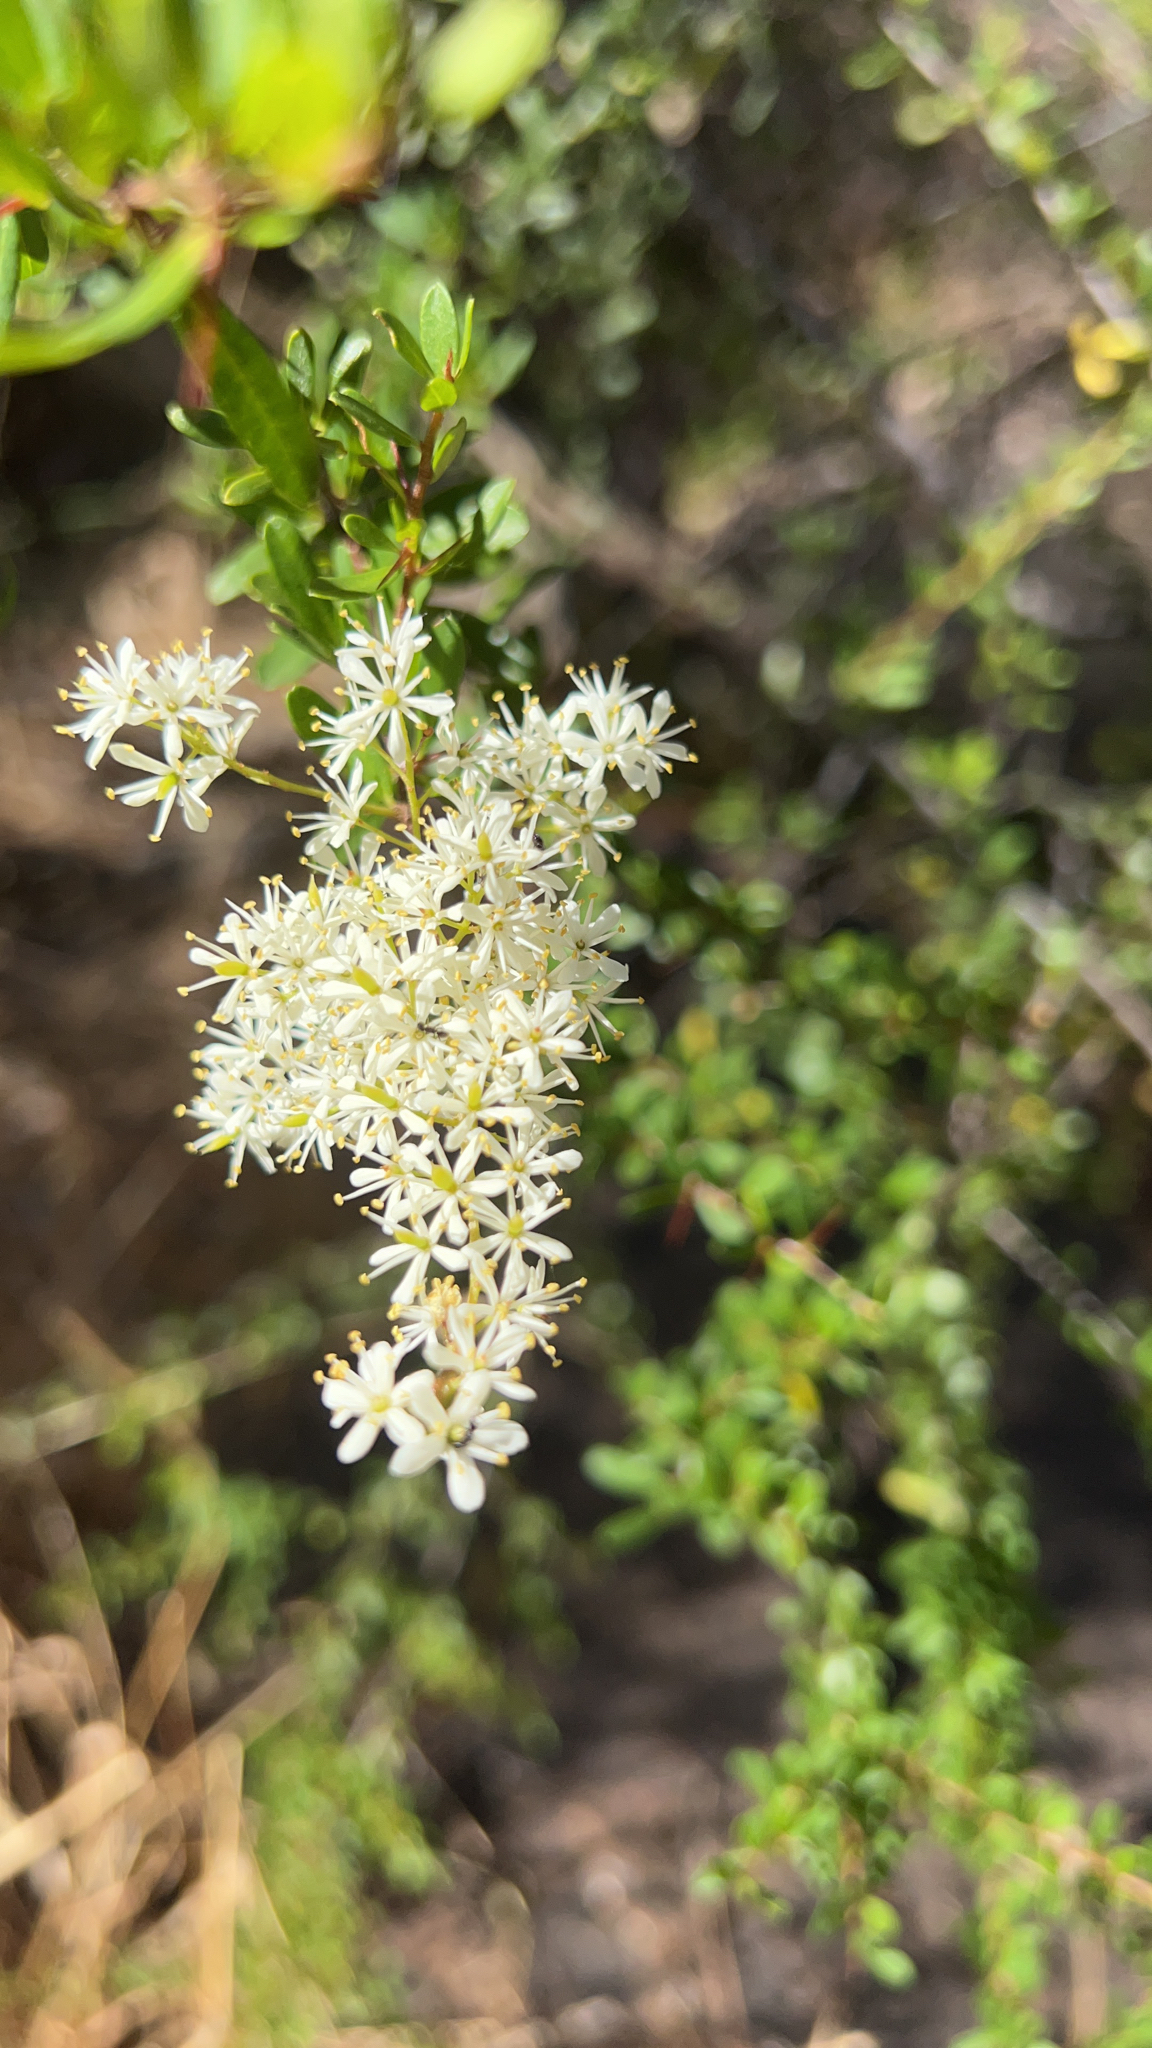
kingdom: Plantae
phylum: Tracheophyta
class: Magnoliopsida
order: Apiales
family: Pittosporaceae
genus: Bursaria
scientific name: Bursaria spinosa
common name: Australian blackthorn
